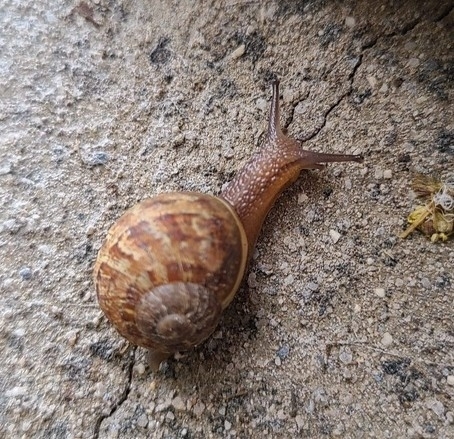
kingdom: Animalia
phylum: Mollusca
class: Gastropoda
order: Stylommatophora
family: Helicidae
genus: Cornu
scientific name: Cornu aspersum
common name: Brown garden snail
